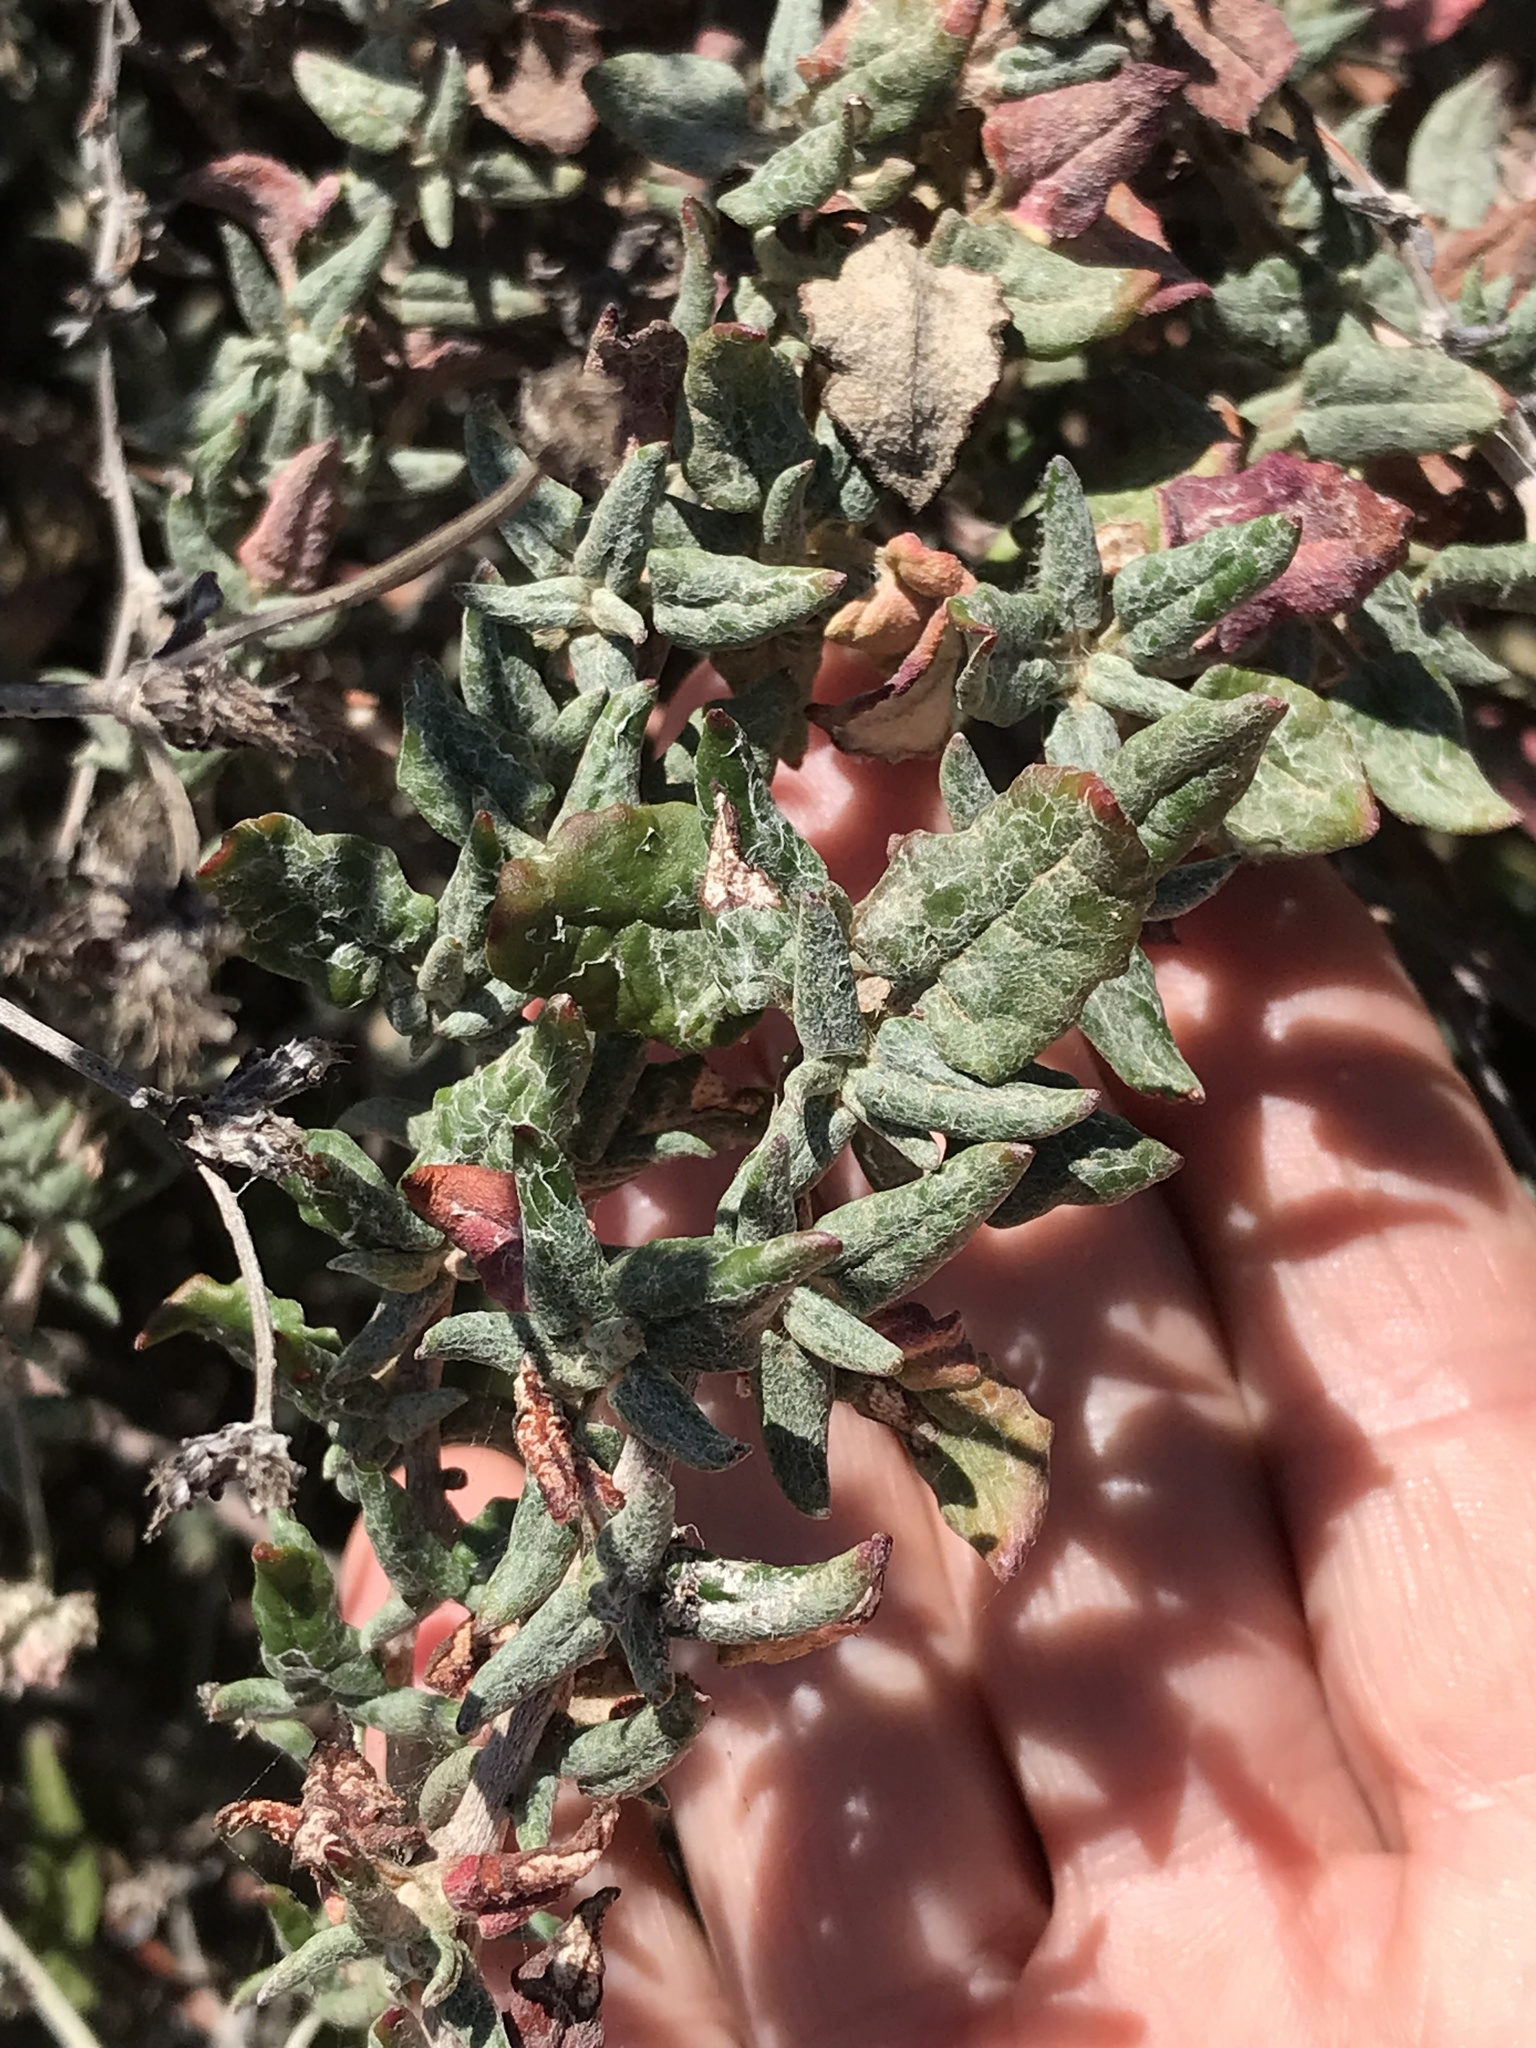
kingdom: Plantae
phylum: Tracheophyta
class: Magnoliopsida
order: Caryophyllales
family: Polygonaceae
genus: Eriogonum
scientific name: Eriogonum parvifolium
